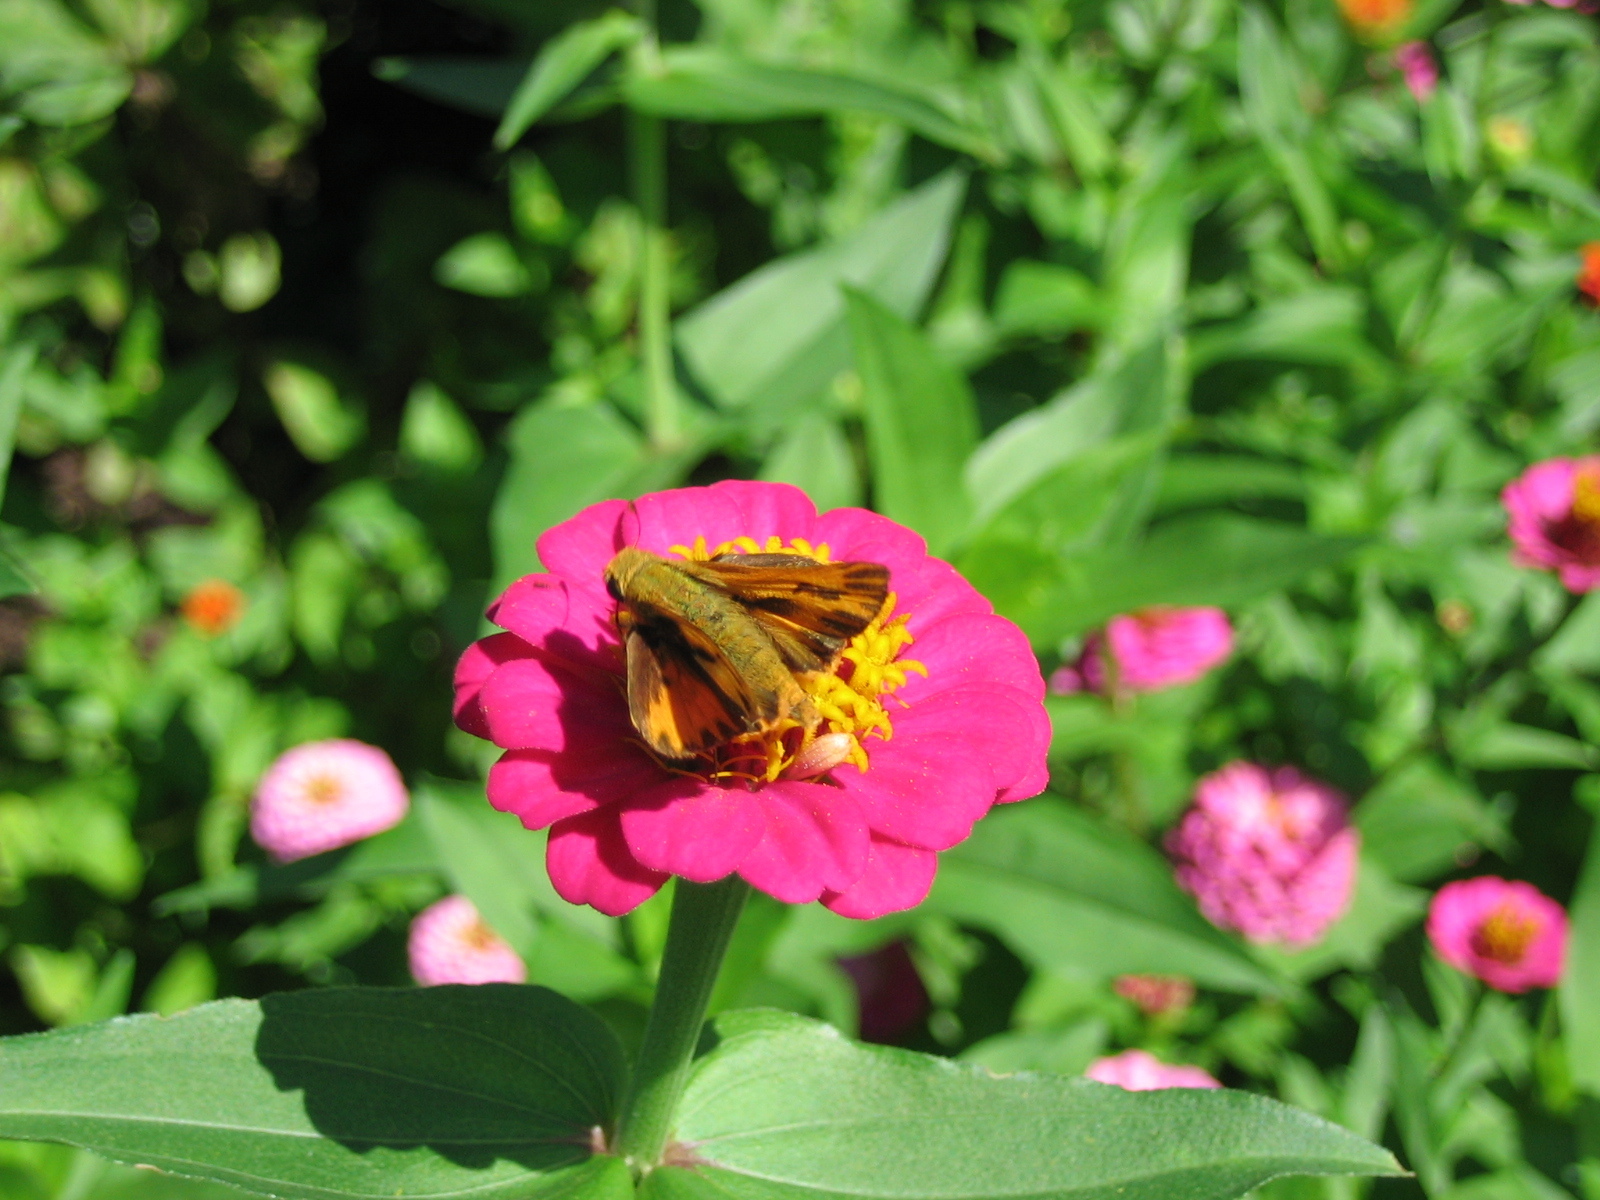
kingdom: Animalia
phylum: Arthropoda
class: Insecta
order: Lepidoptera
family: Hesperiidae
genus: Hylephila
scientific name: Hylephila phyleus
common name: Fiery skipper
